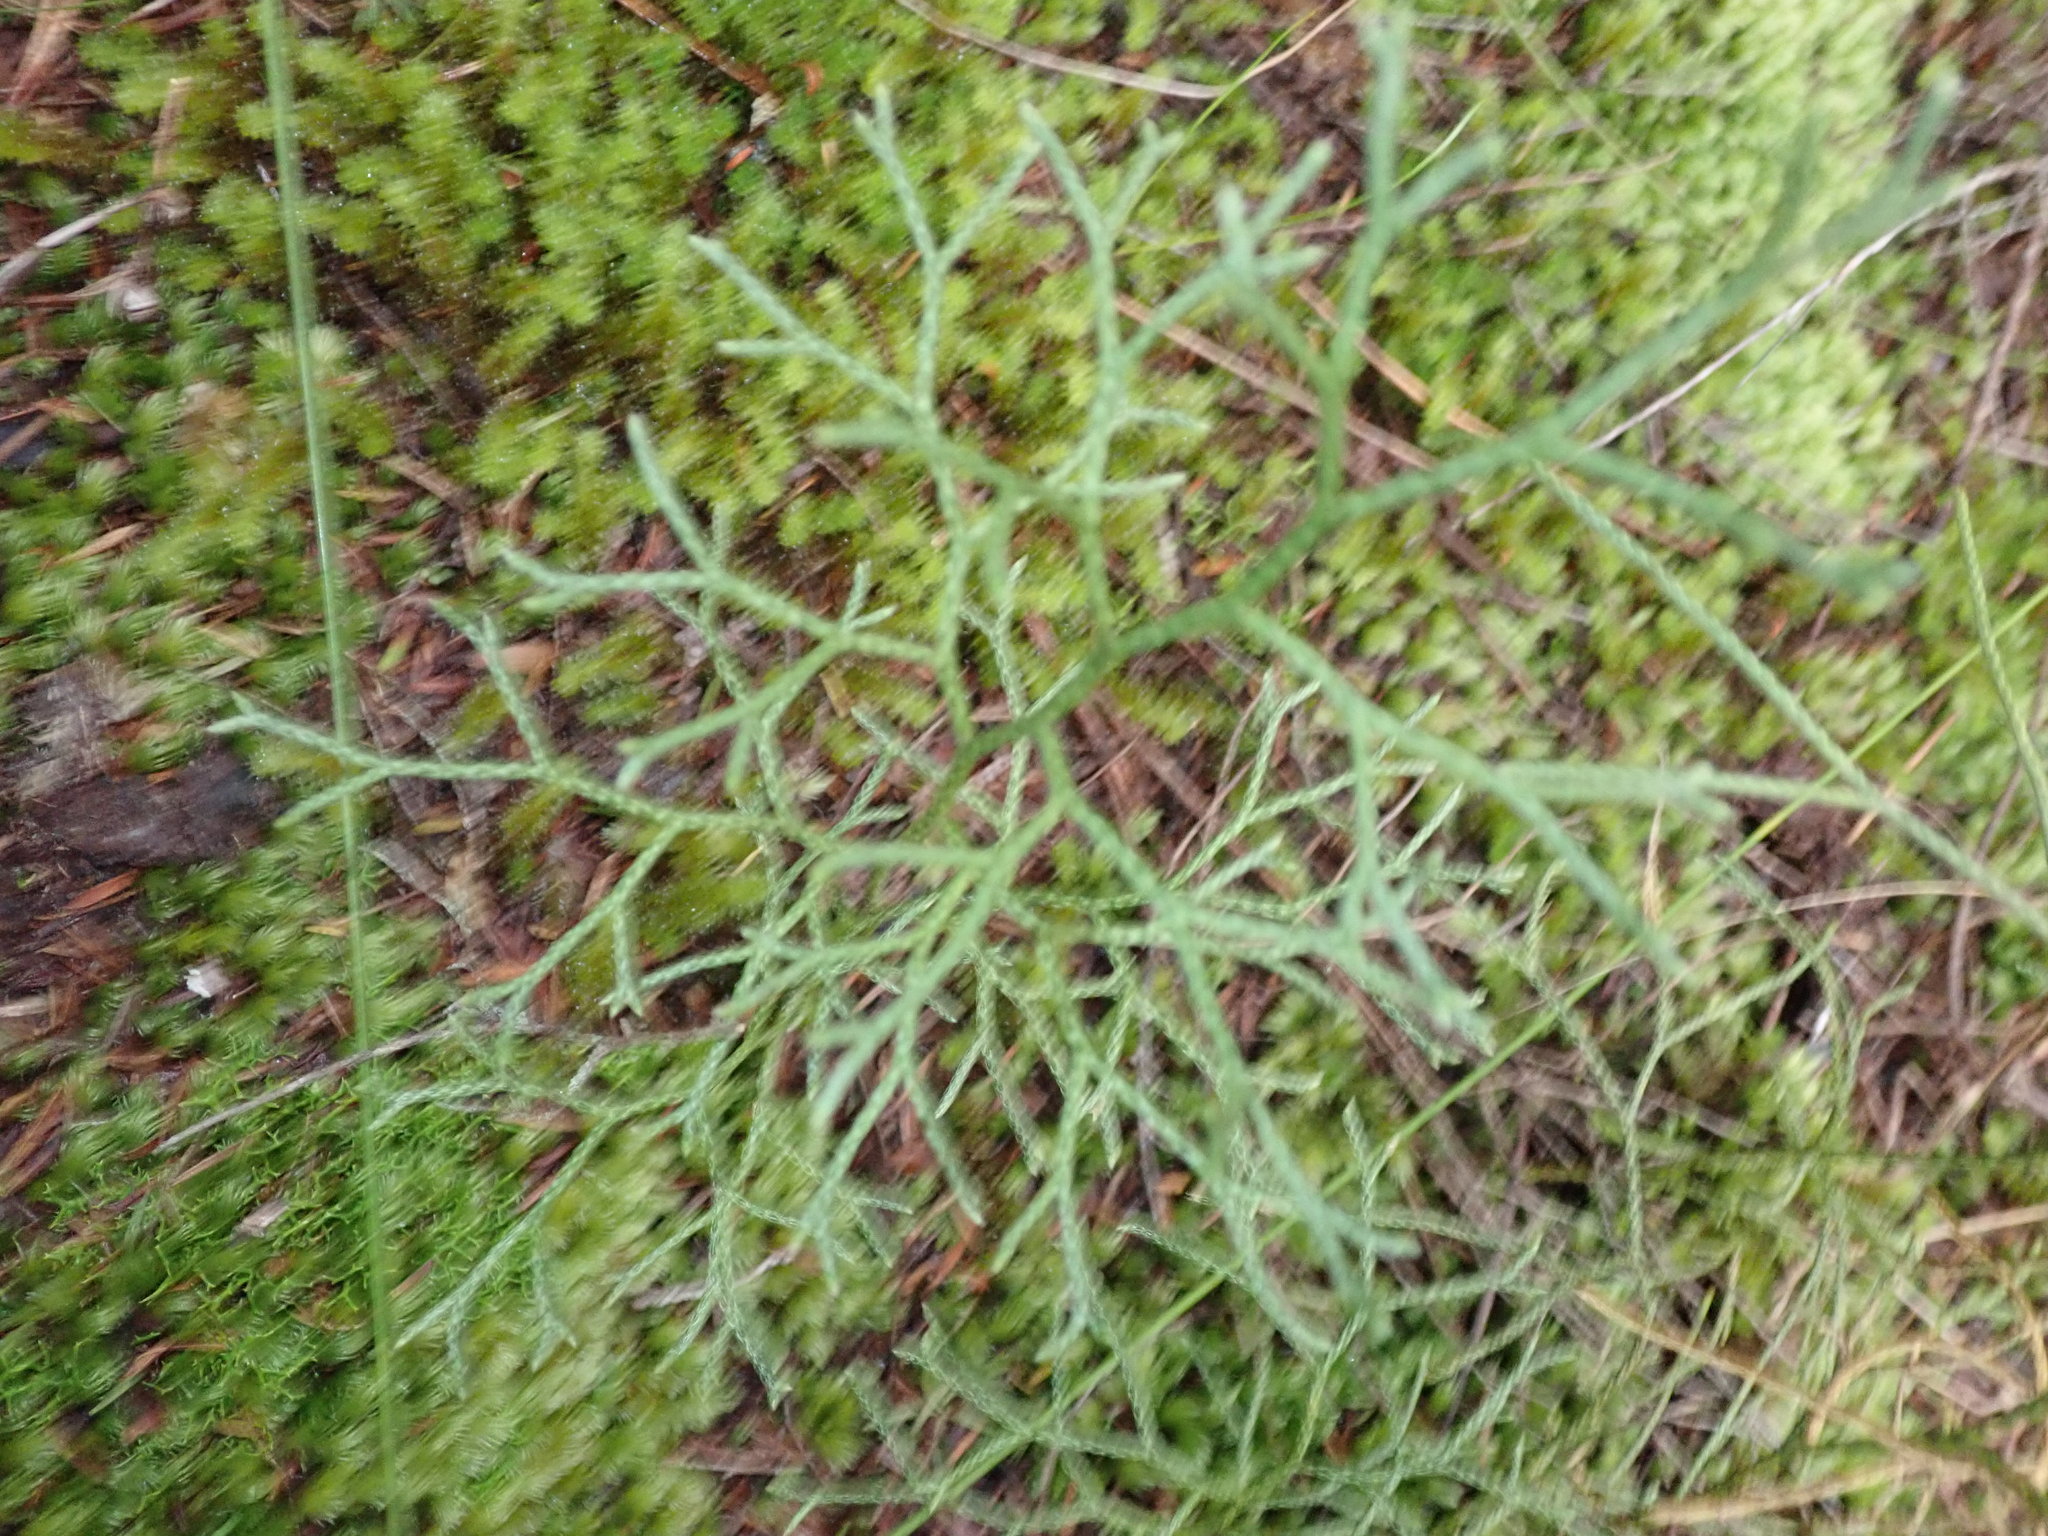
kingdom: Plantae
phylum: Tracheophyta
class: Lycopodiopsida
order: Lycopodiales
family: Lycopodiaceae
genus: Pseudolycopodium
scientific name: Pseudolycopodium densum
